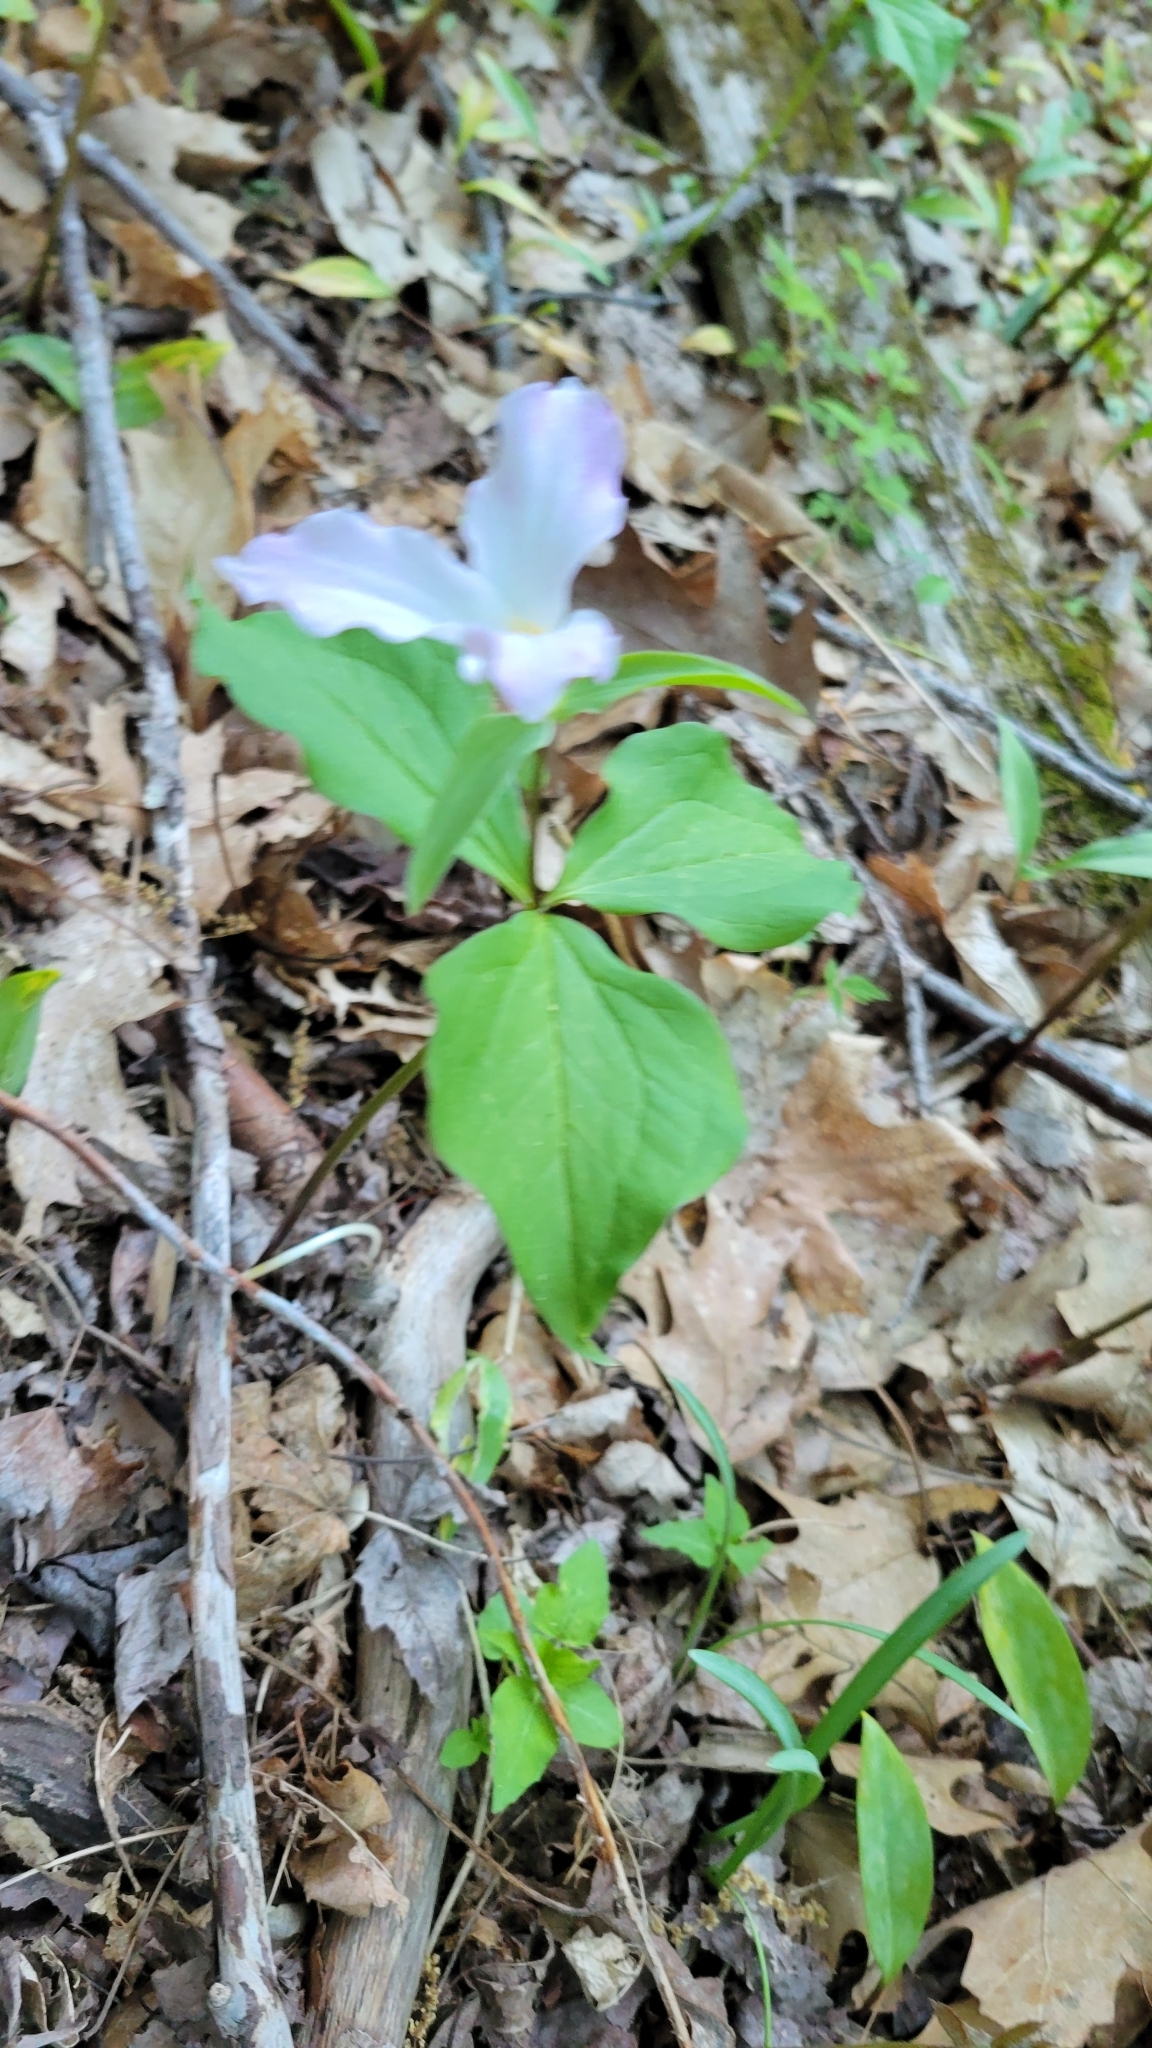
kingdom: Plantae
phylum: Tracheophyta
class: Liliopsida
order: Liliales
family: Melanthiaceae
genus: Trillium
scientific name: Trillium grandiflorum
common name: Great white trillium
